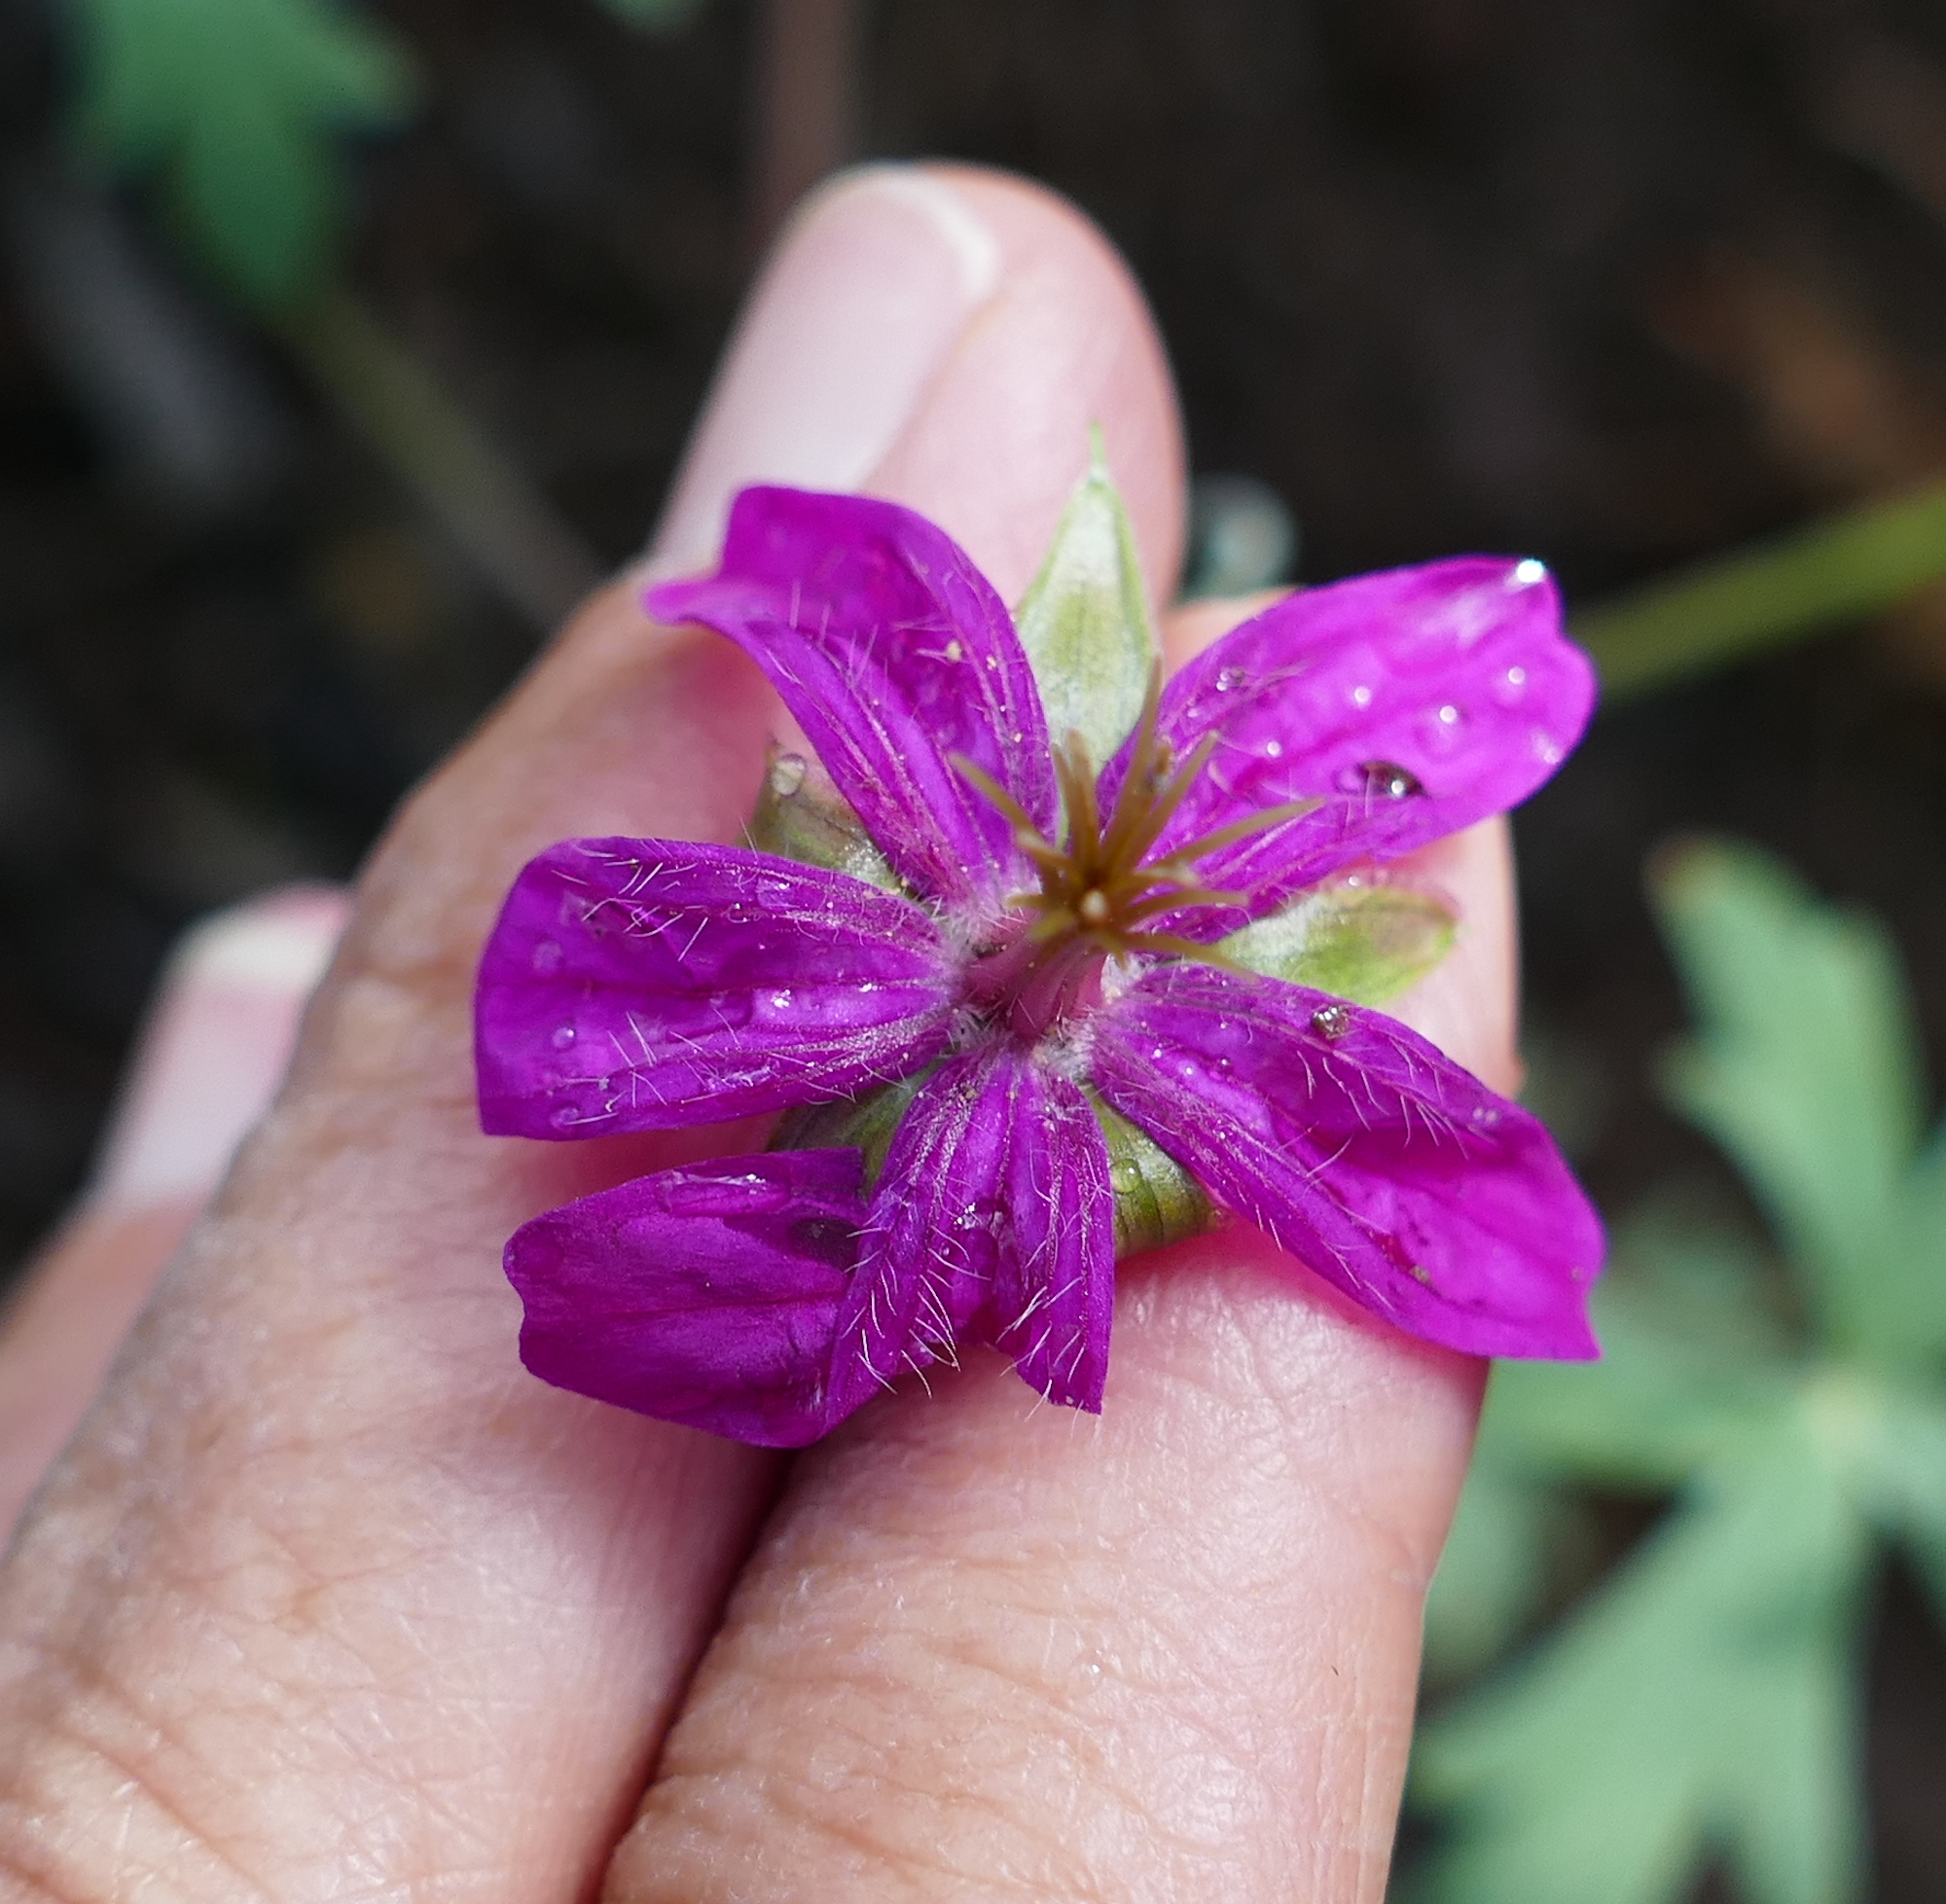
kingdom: Plantae
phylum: Tracheophyta
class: Magnoliopsida
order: Geraniales
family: Geraniaceae
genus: Geranium
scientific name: Geranium caespitosum
